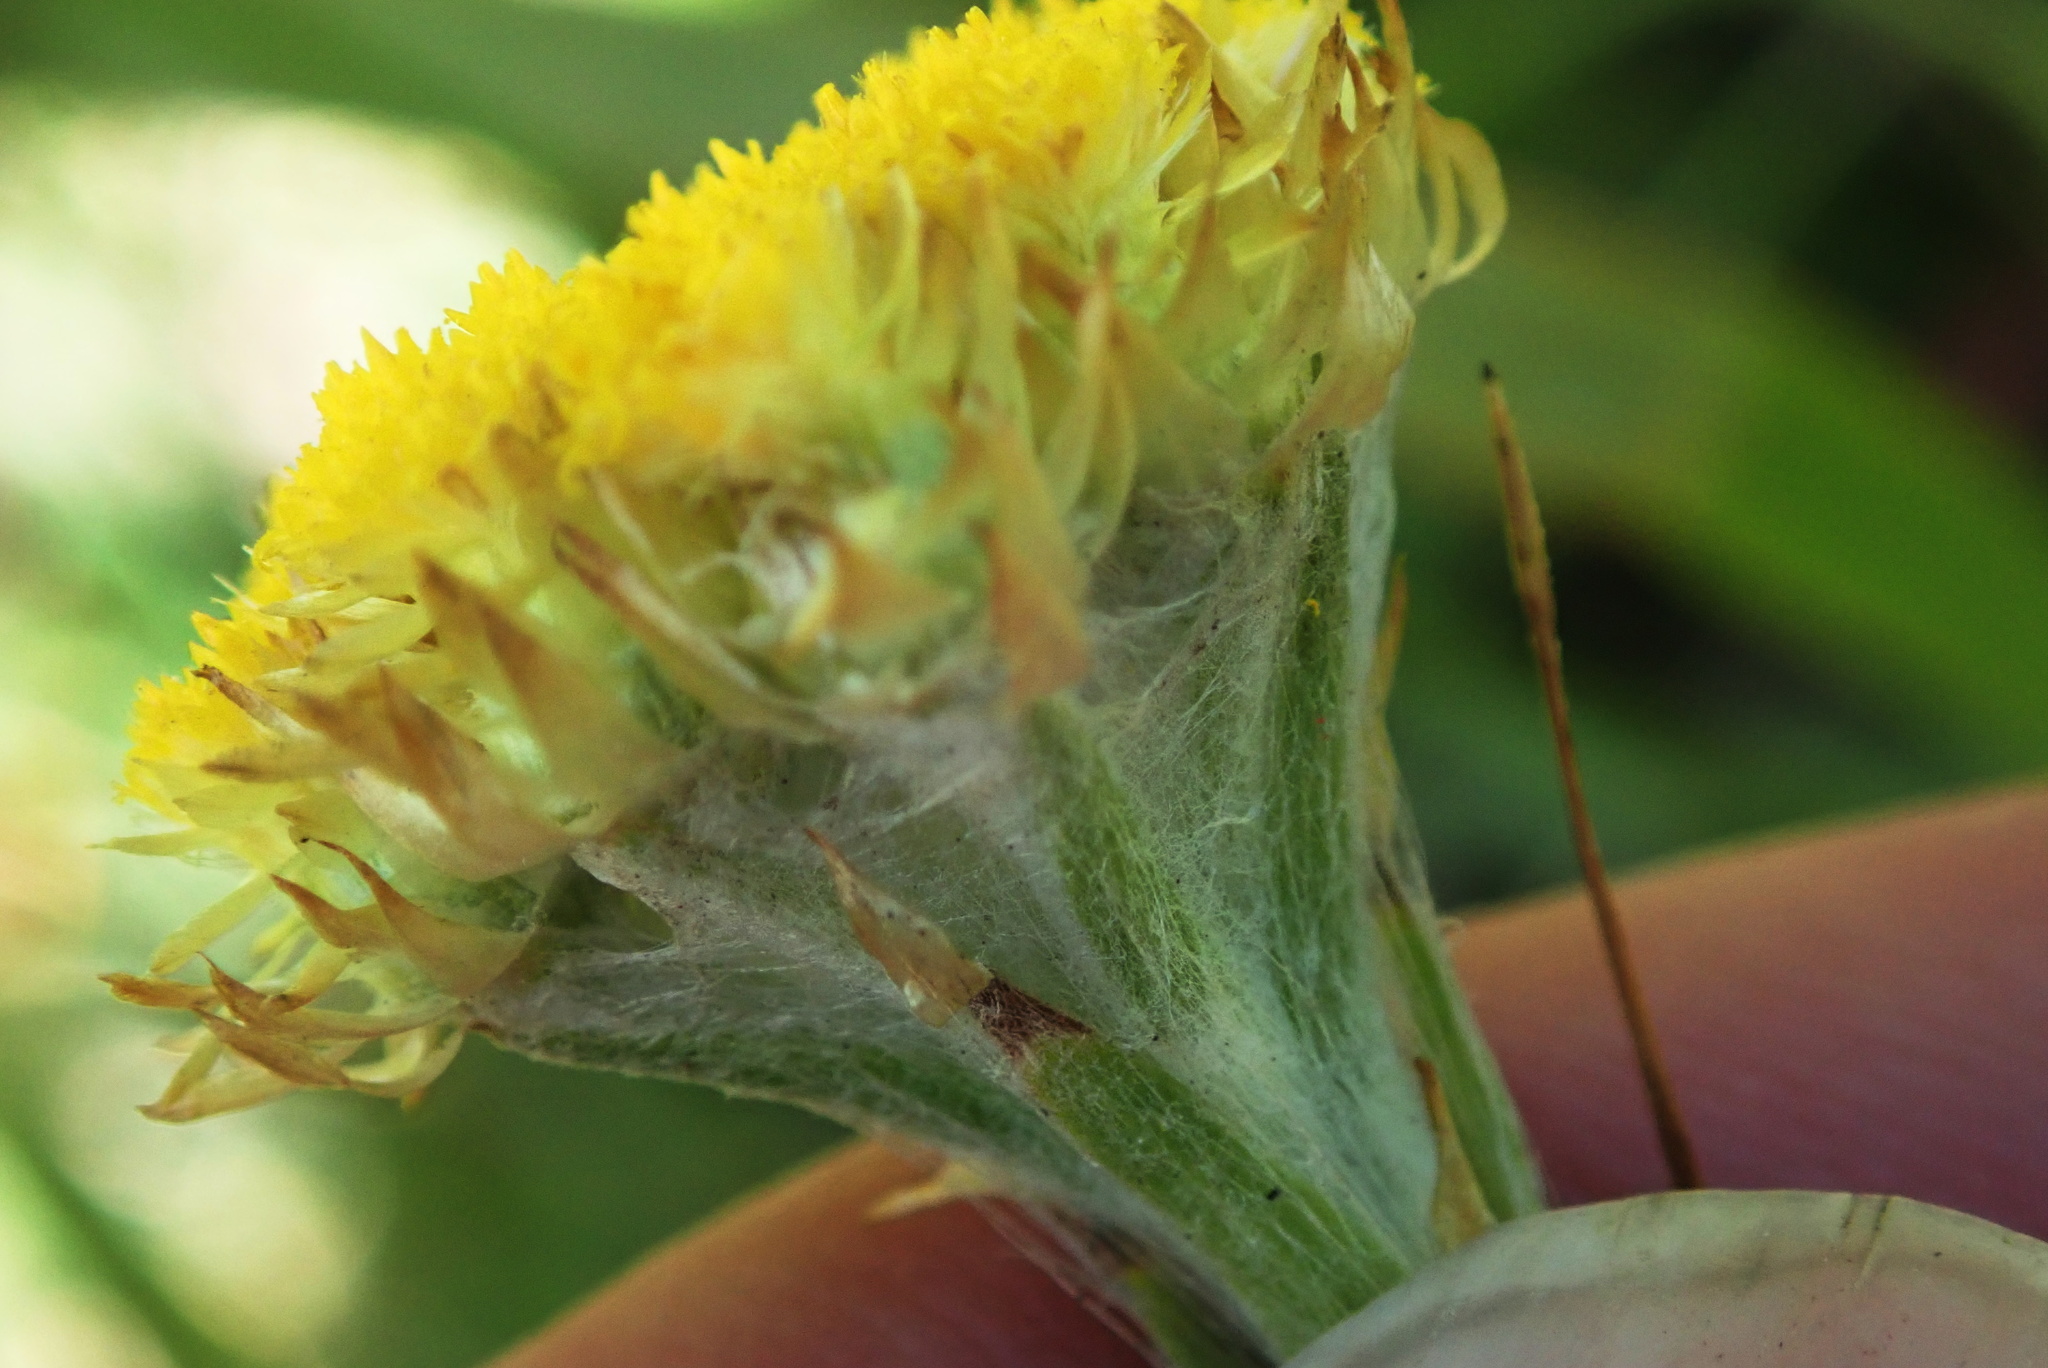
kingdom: Plantae
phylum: Tracheophyta
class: Magnoliopsida
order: Asterales
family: Asteraceae
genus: Helichrysum
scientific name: Helichrysum cephaloideum
